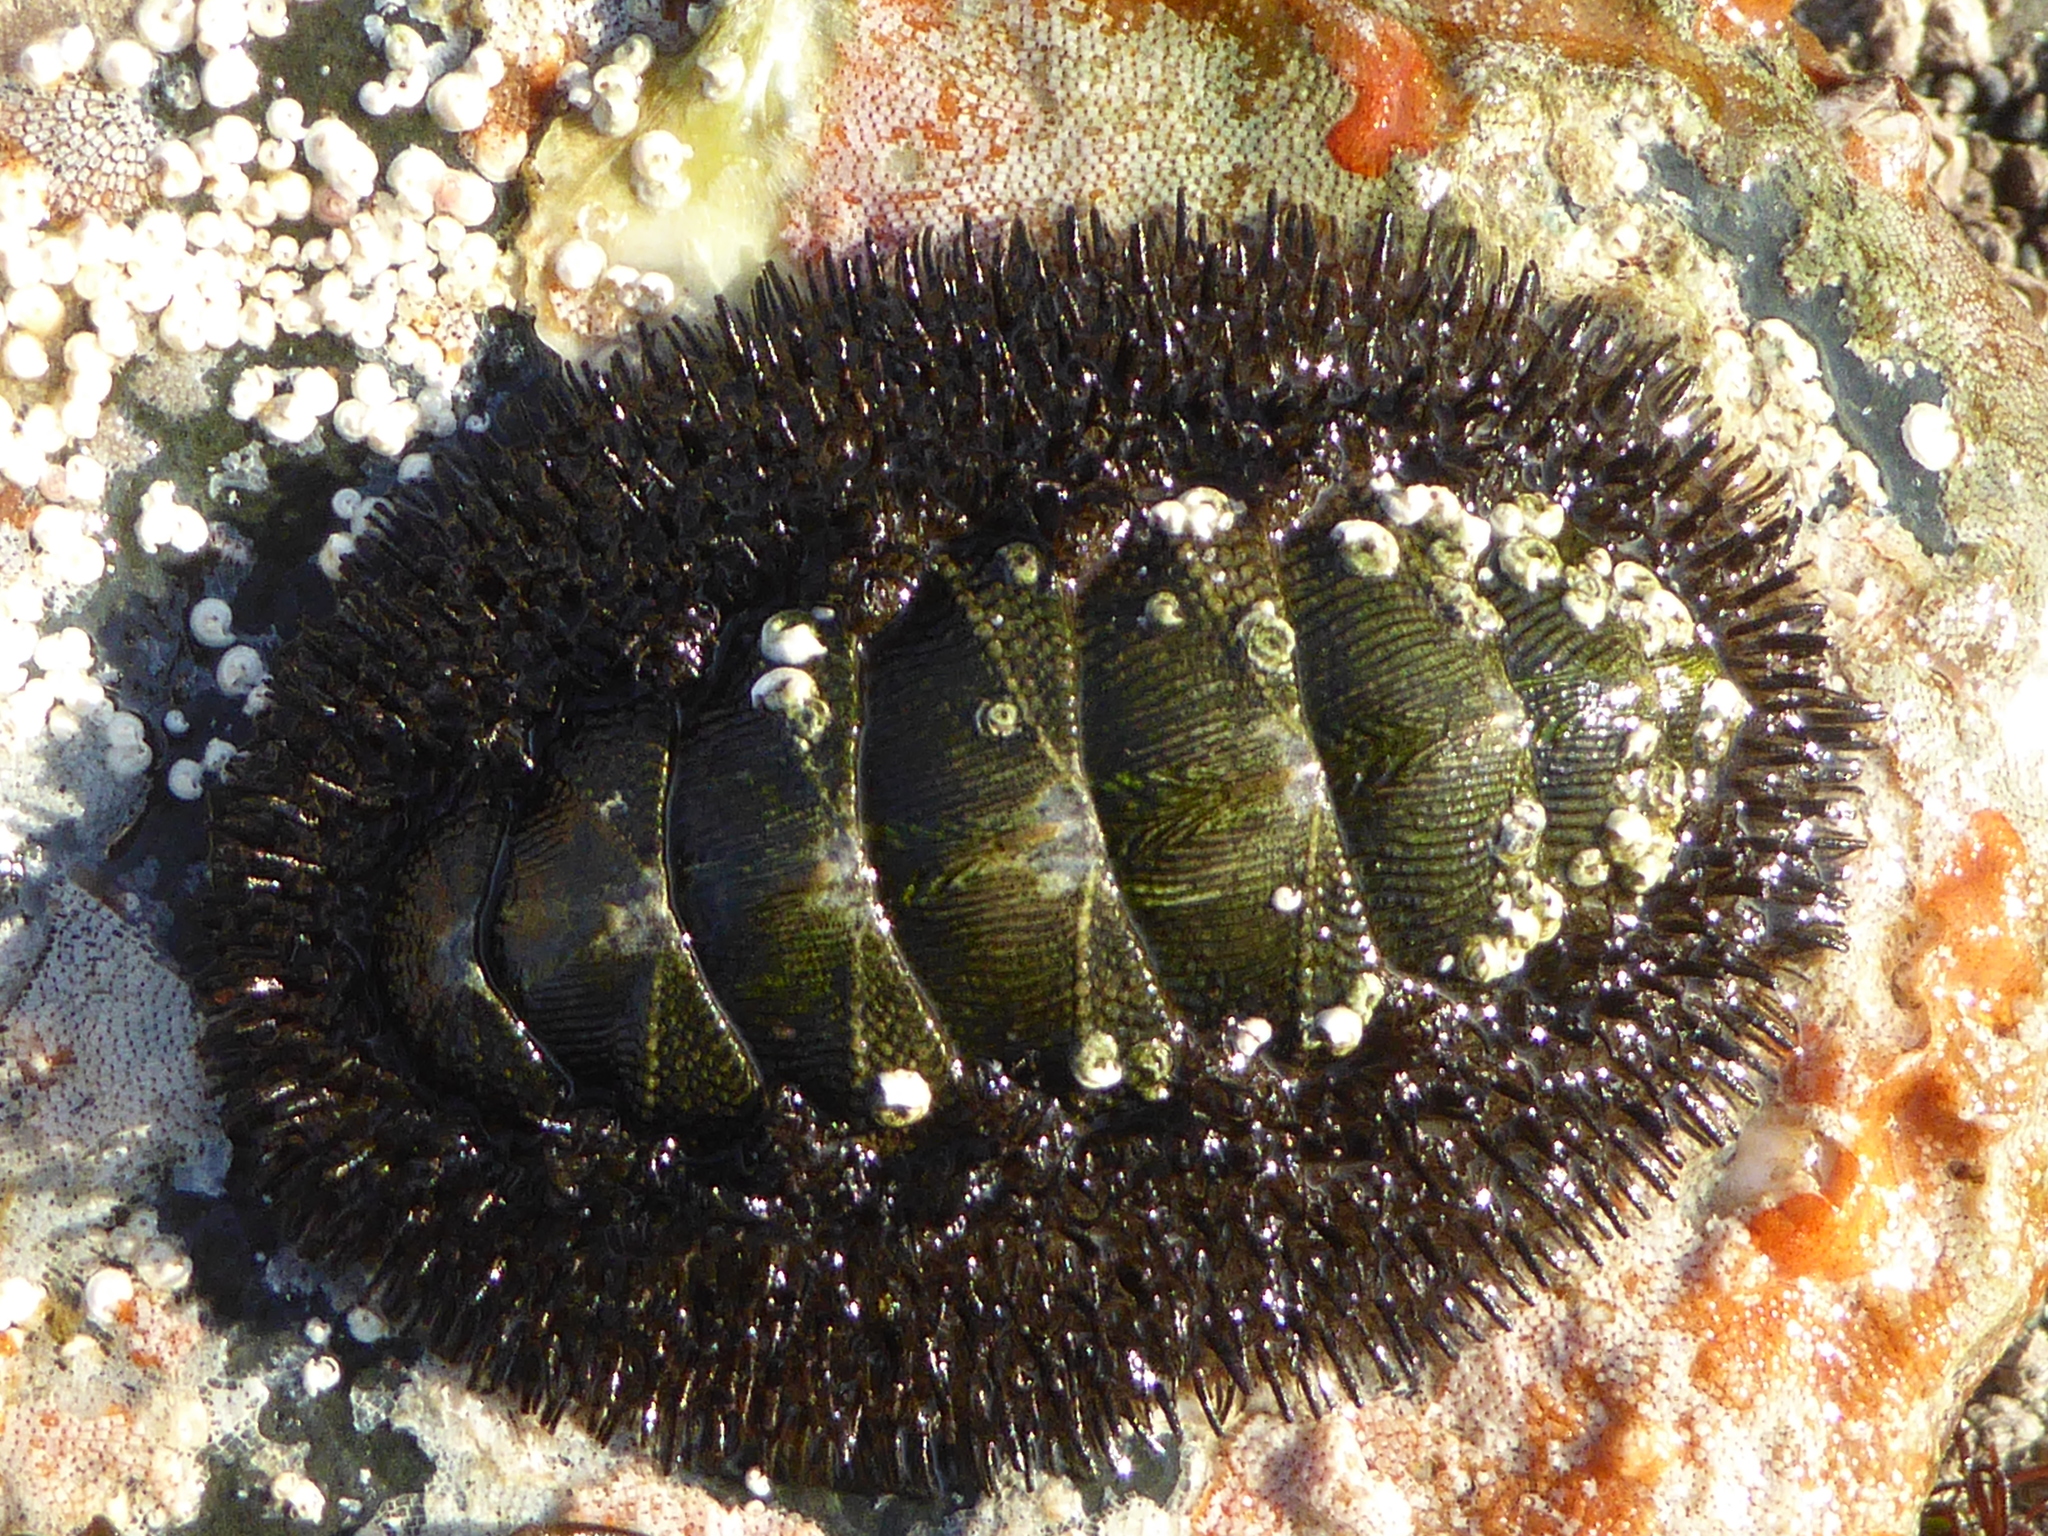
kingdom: Animalia
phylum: Mollusca
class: Polyplacophora
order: Chitonida
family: Mopaliidae
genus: Mopalia
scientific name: Mopalia muscosa
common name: Mossy chiton
